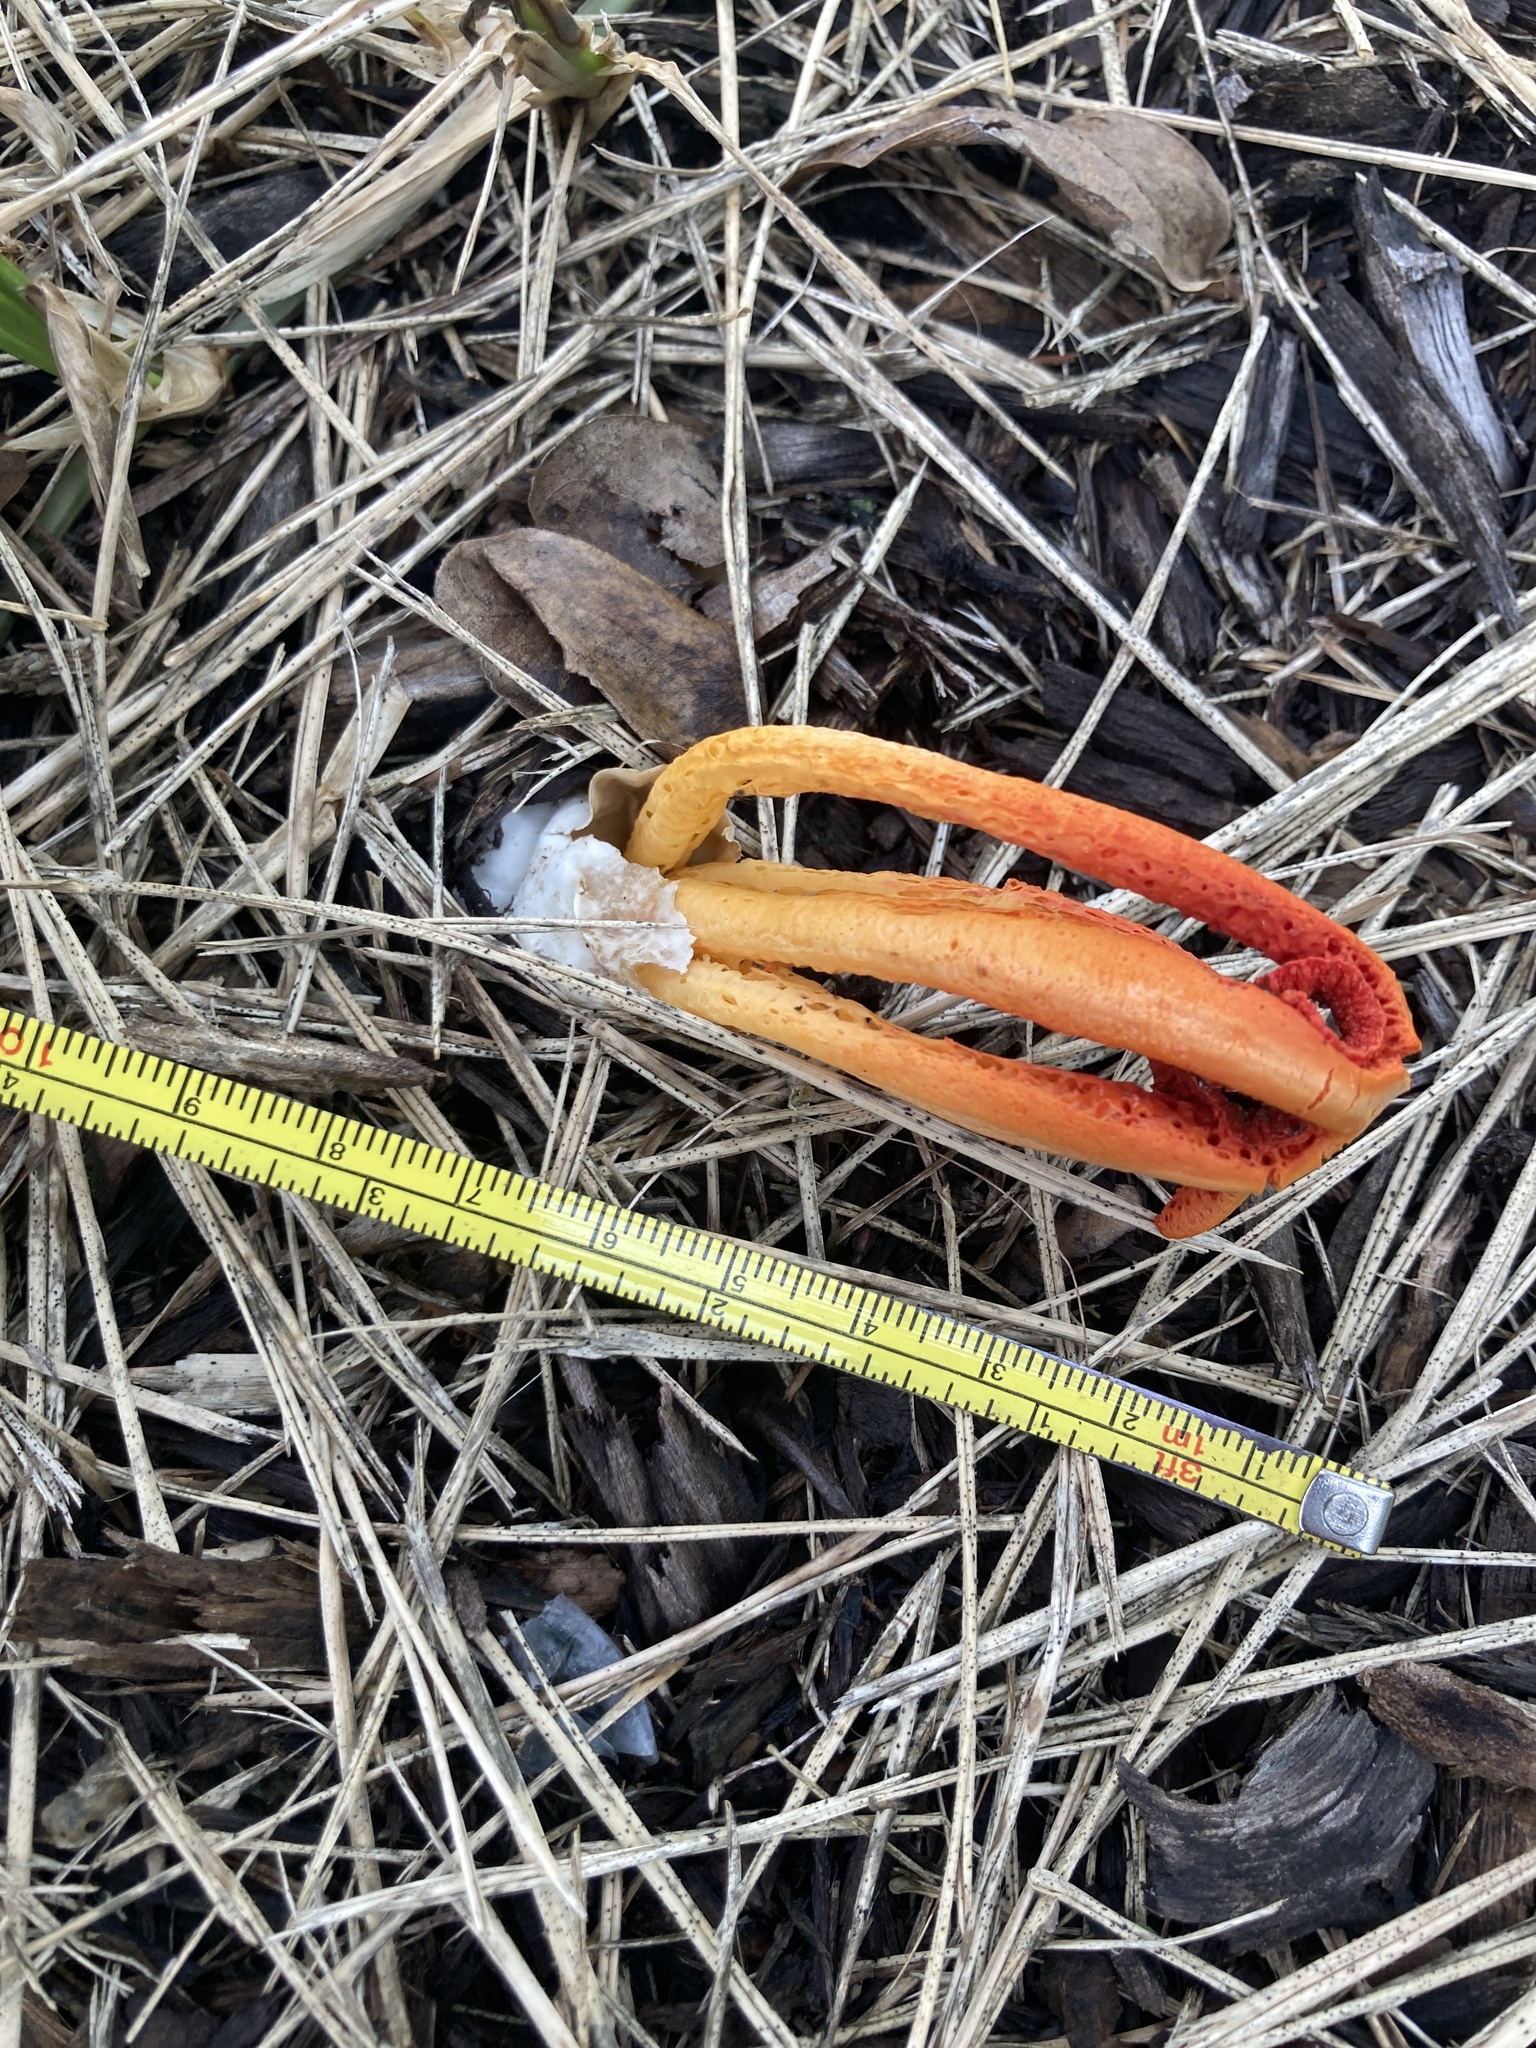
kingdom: Fungi
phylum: Basidiomycota
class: Agaricomycetes
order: Phallales
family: Phallaceae
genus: Clathrus
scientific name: Clathrus columnatus
